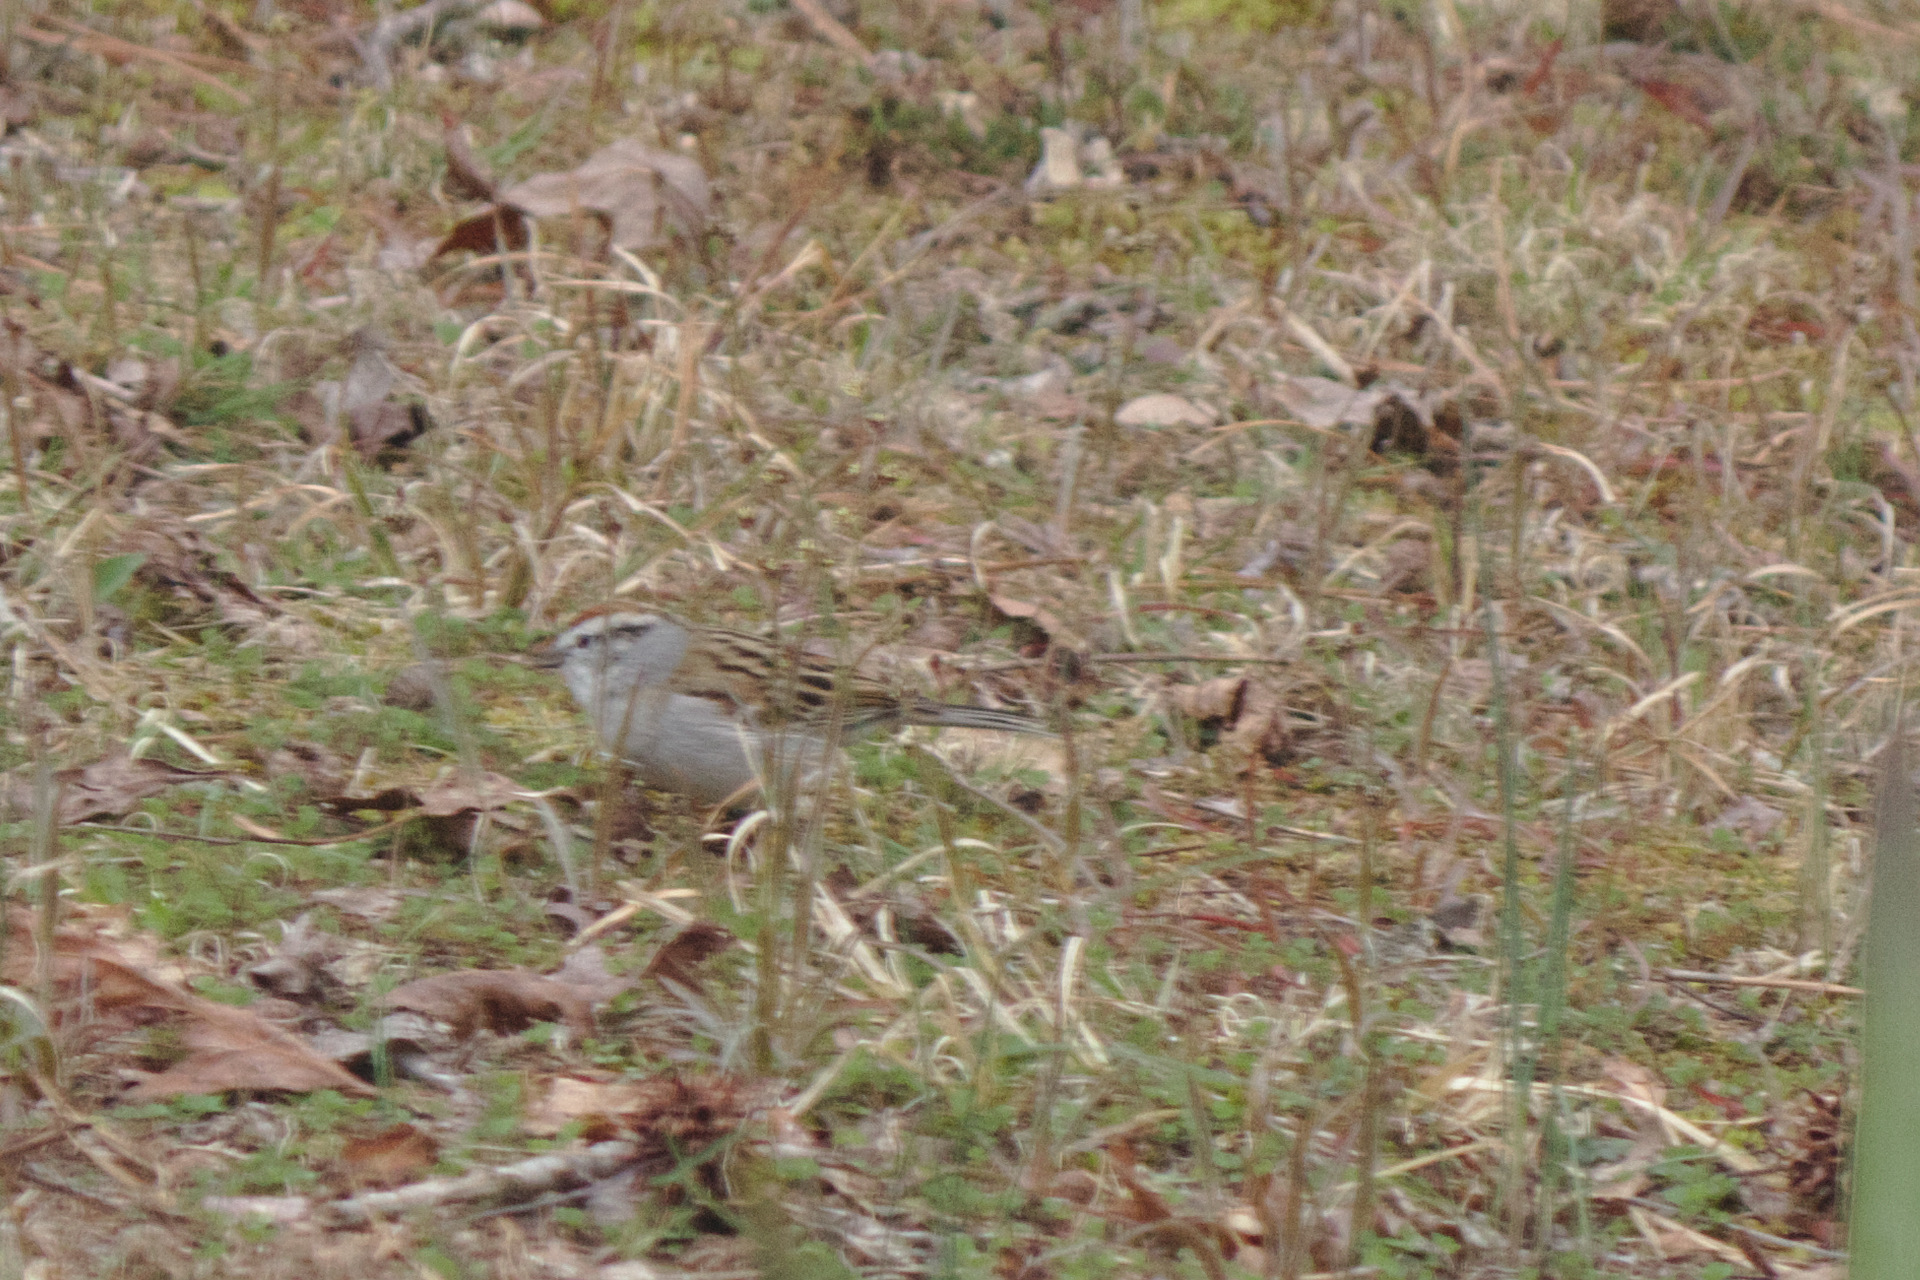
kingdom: Animalia
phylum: Chordata
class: Aves
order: Passeriformes
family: Passerellidae
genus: Spizella
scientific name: Spizella passerina
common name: Chipping sparrow
